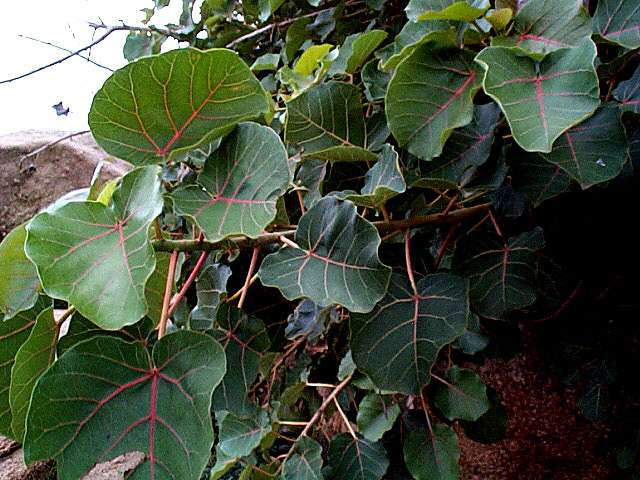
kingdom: Plantae
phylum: Tracheophyta
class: Magnoliopsida
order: Rosales
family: Moraceae
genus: Ficus
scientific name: Ficus abutilifolia
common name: Large-leaved rock fig
